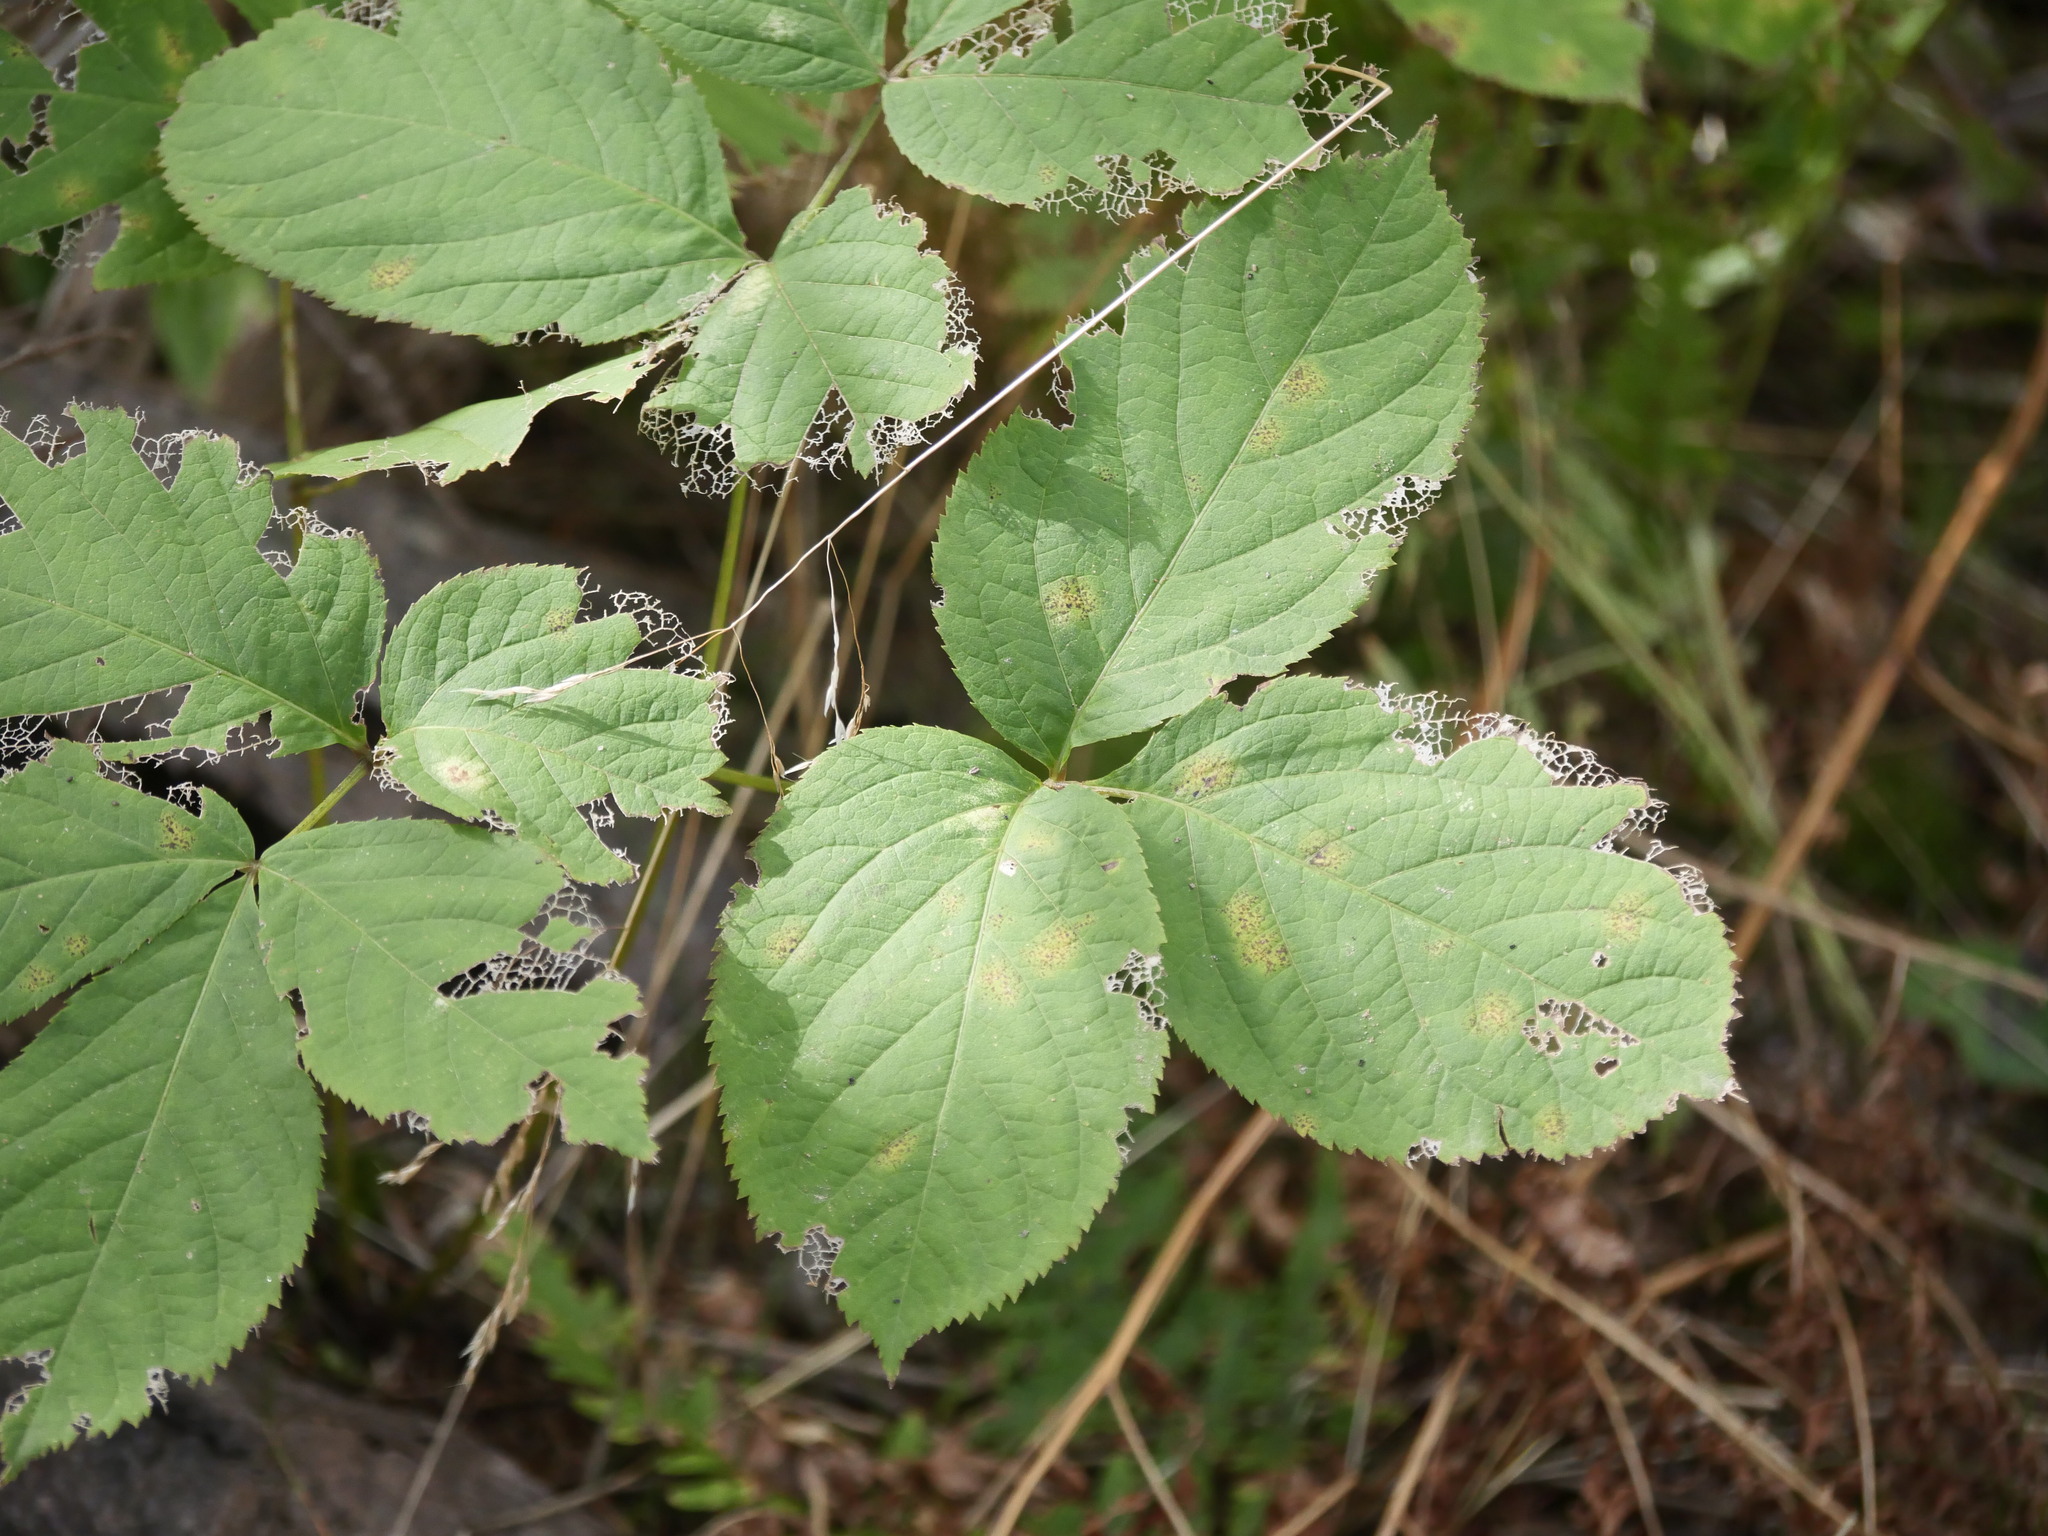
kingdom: Plantae
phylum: Tracheophyta
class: Magnoliopsida
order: Apiales
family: Araliaceae
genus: Aralia
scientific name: Aralia nudicaulis
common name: Wild sarsaparilla
